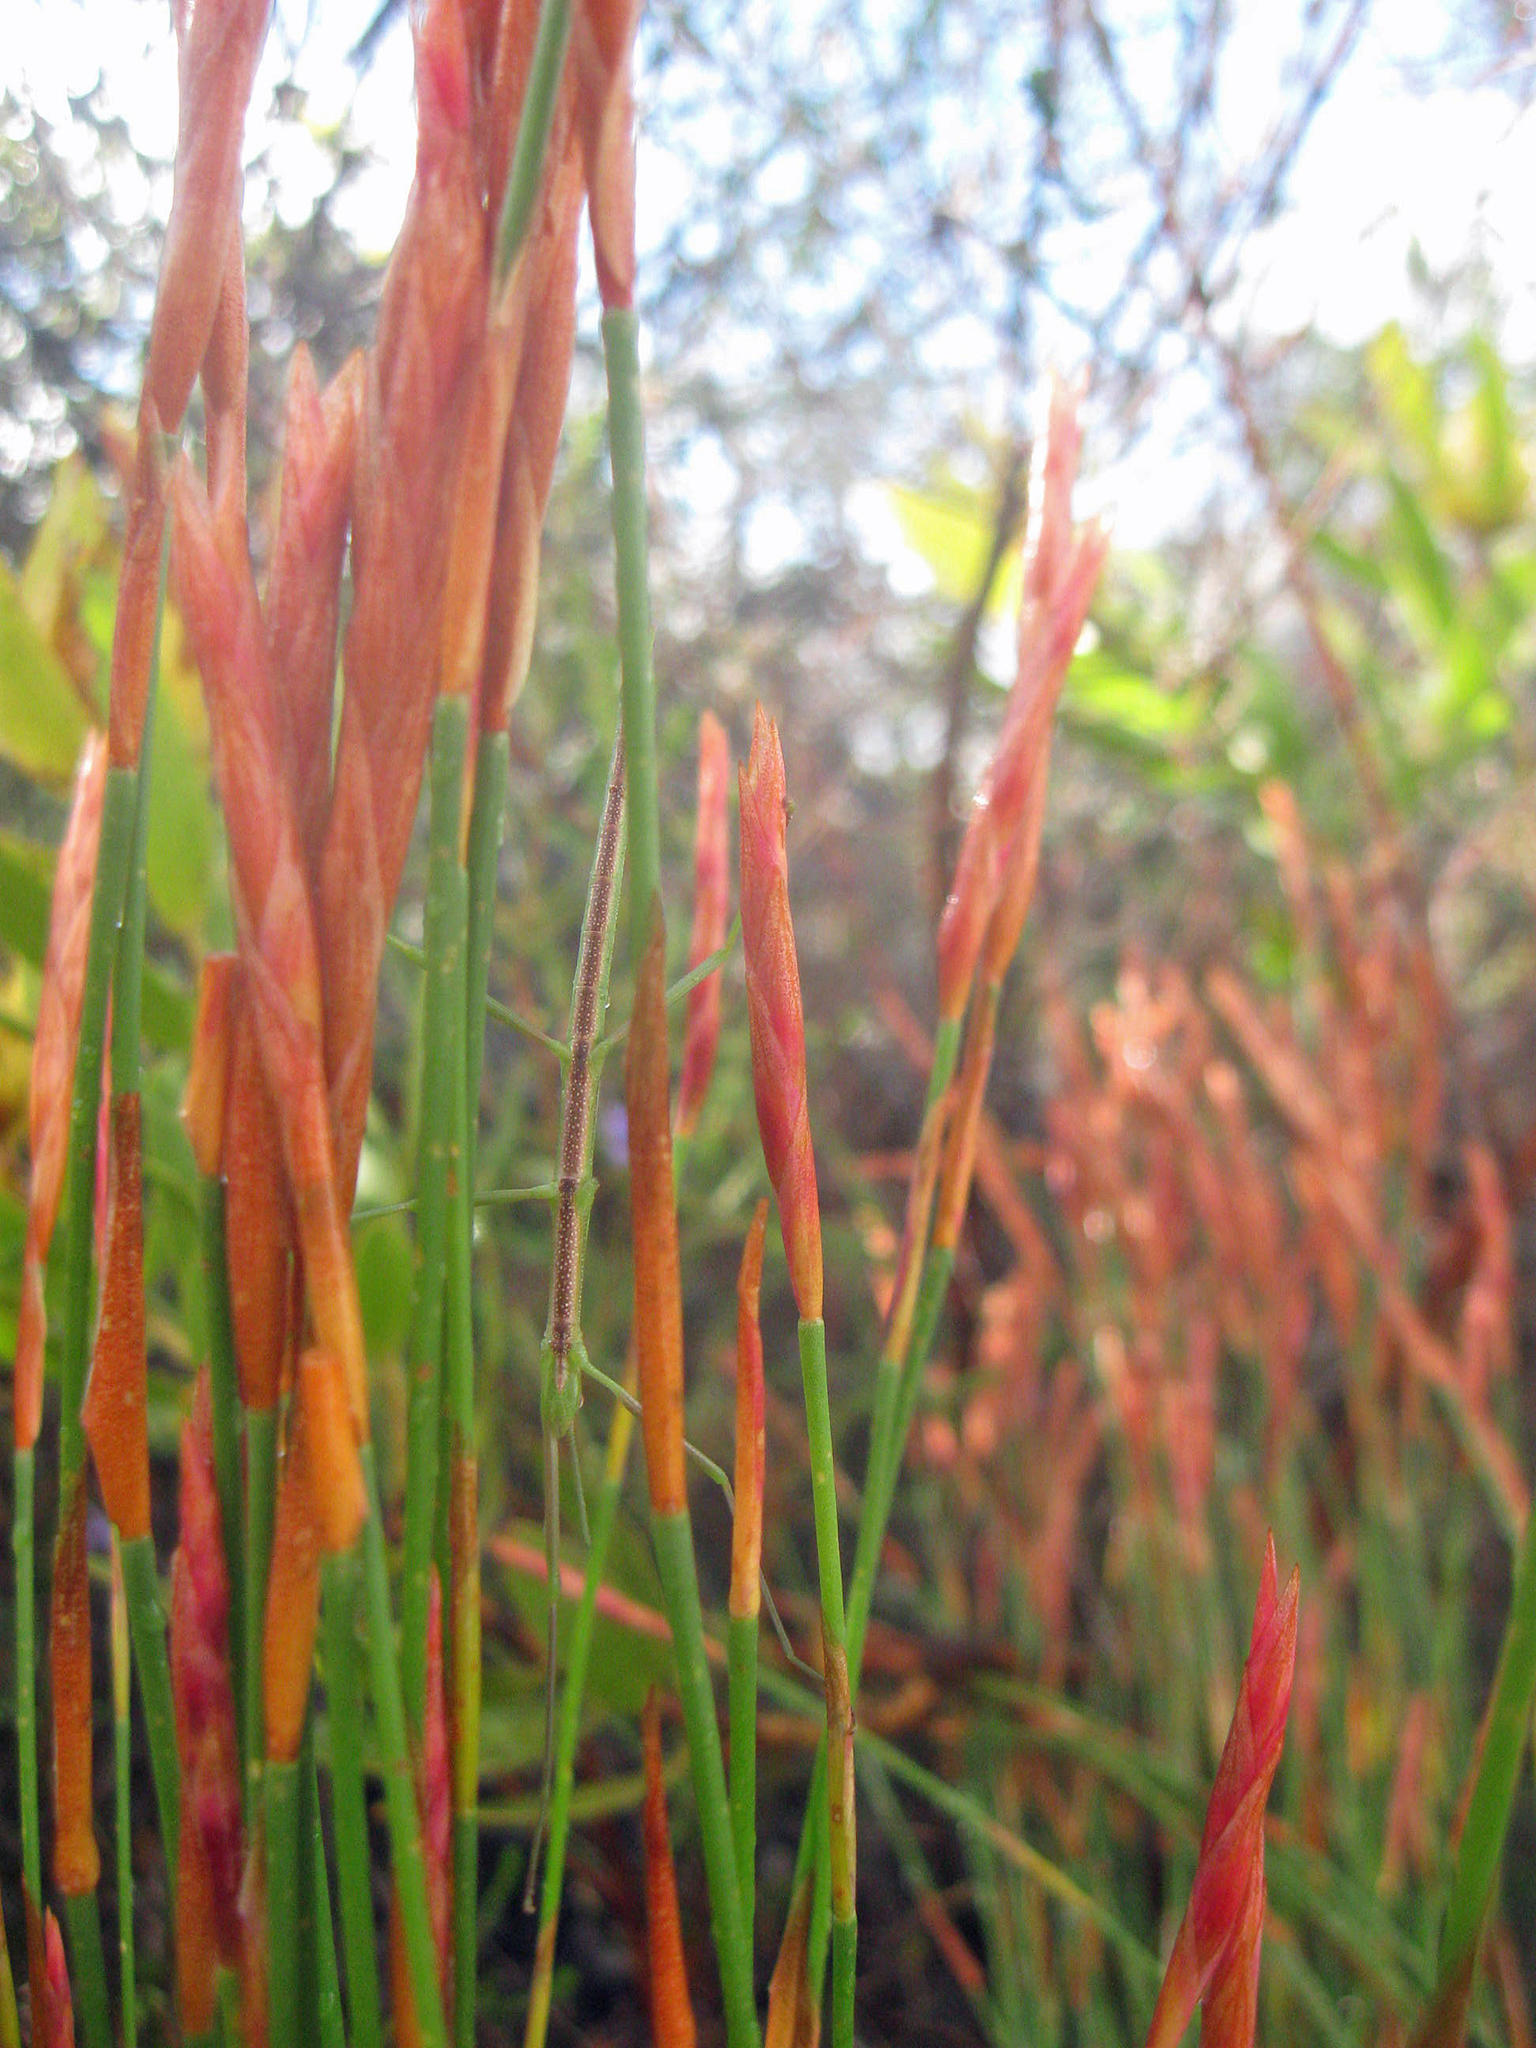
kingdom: Animalia
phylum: Arthropoda
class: Insecta
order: Phasmida
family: Bacillidae
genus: Macynia
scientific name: Macynia labiata
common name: Thunberg's stick insect
